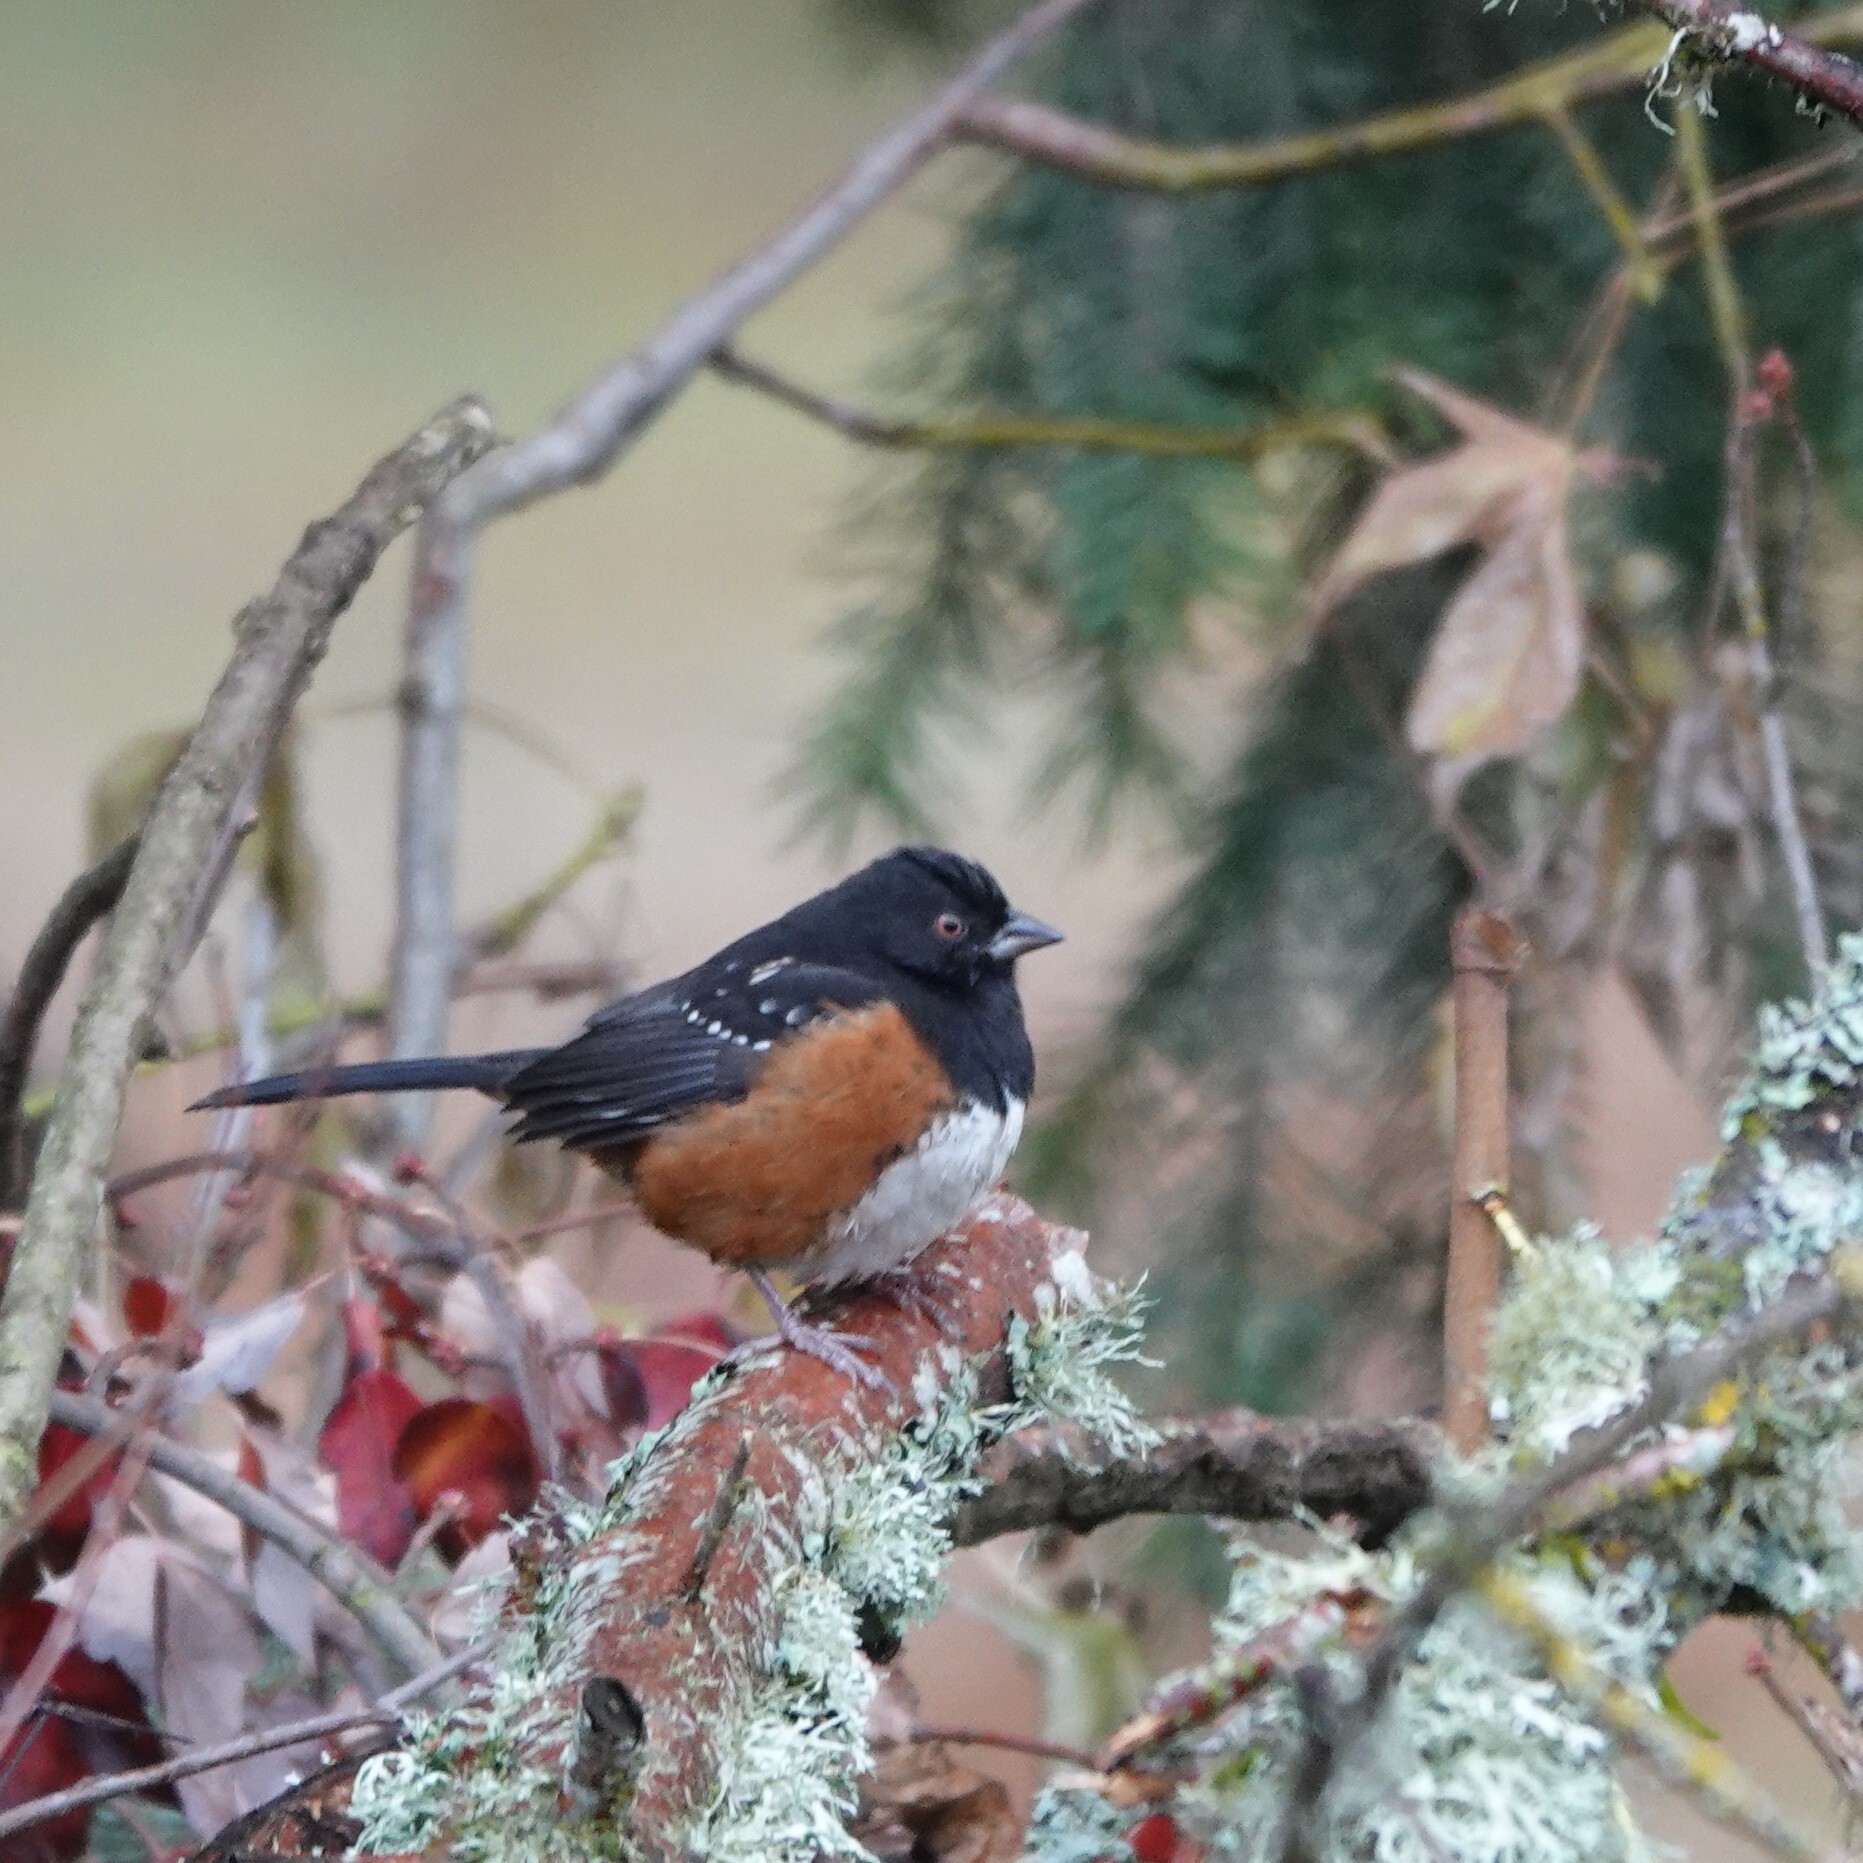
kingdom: Animalia
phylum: Chordata
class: Aves
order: Passeriformes
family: Passerellidae
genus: Pipilo
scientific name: Pipilo maculatus
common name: Spotted towhee
